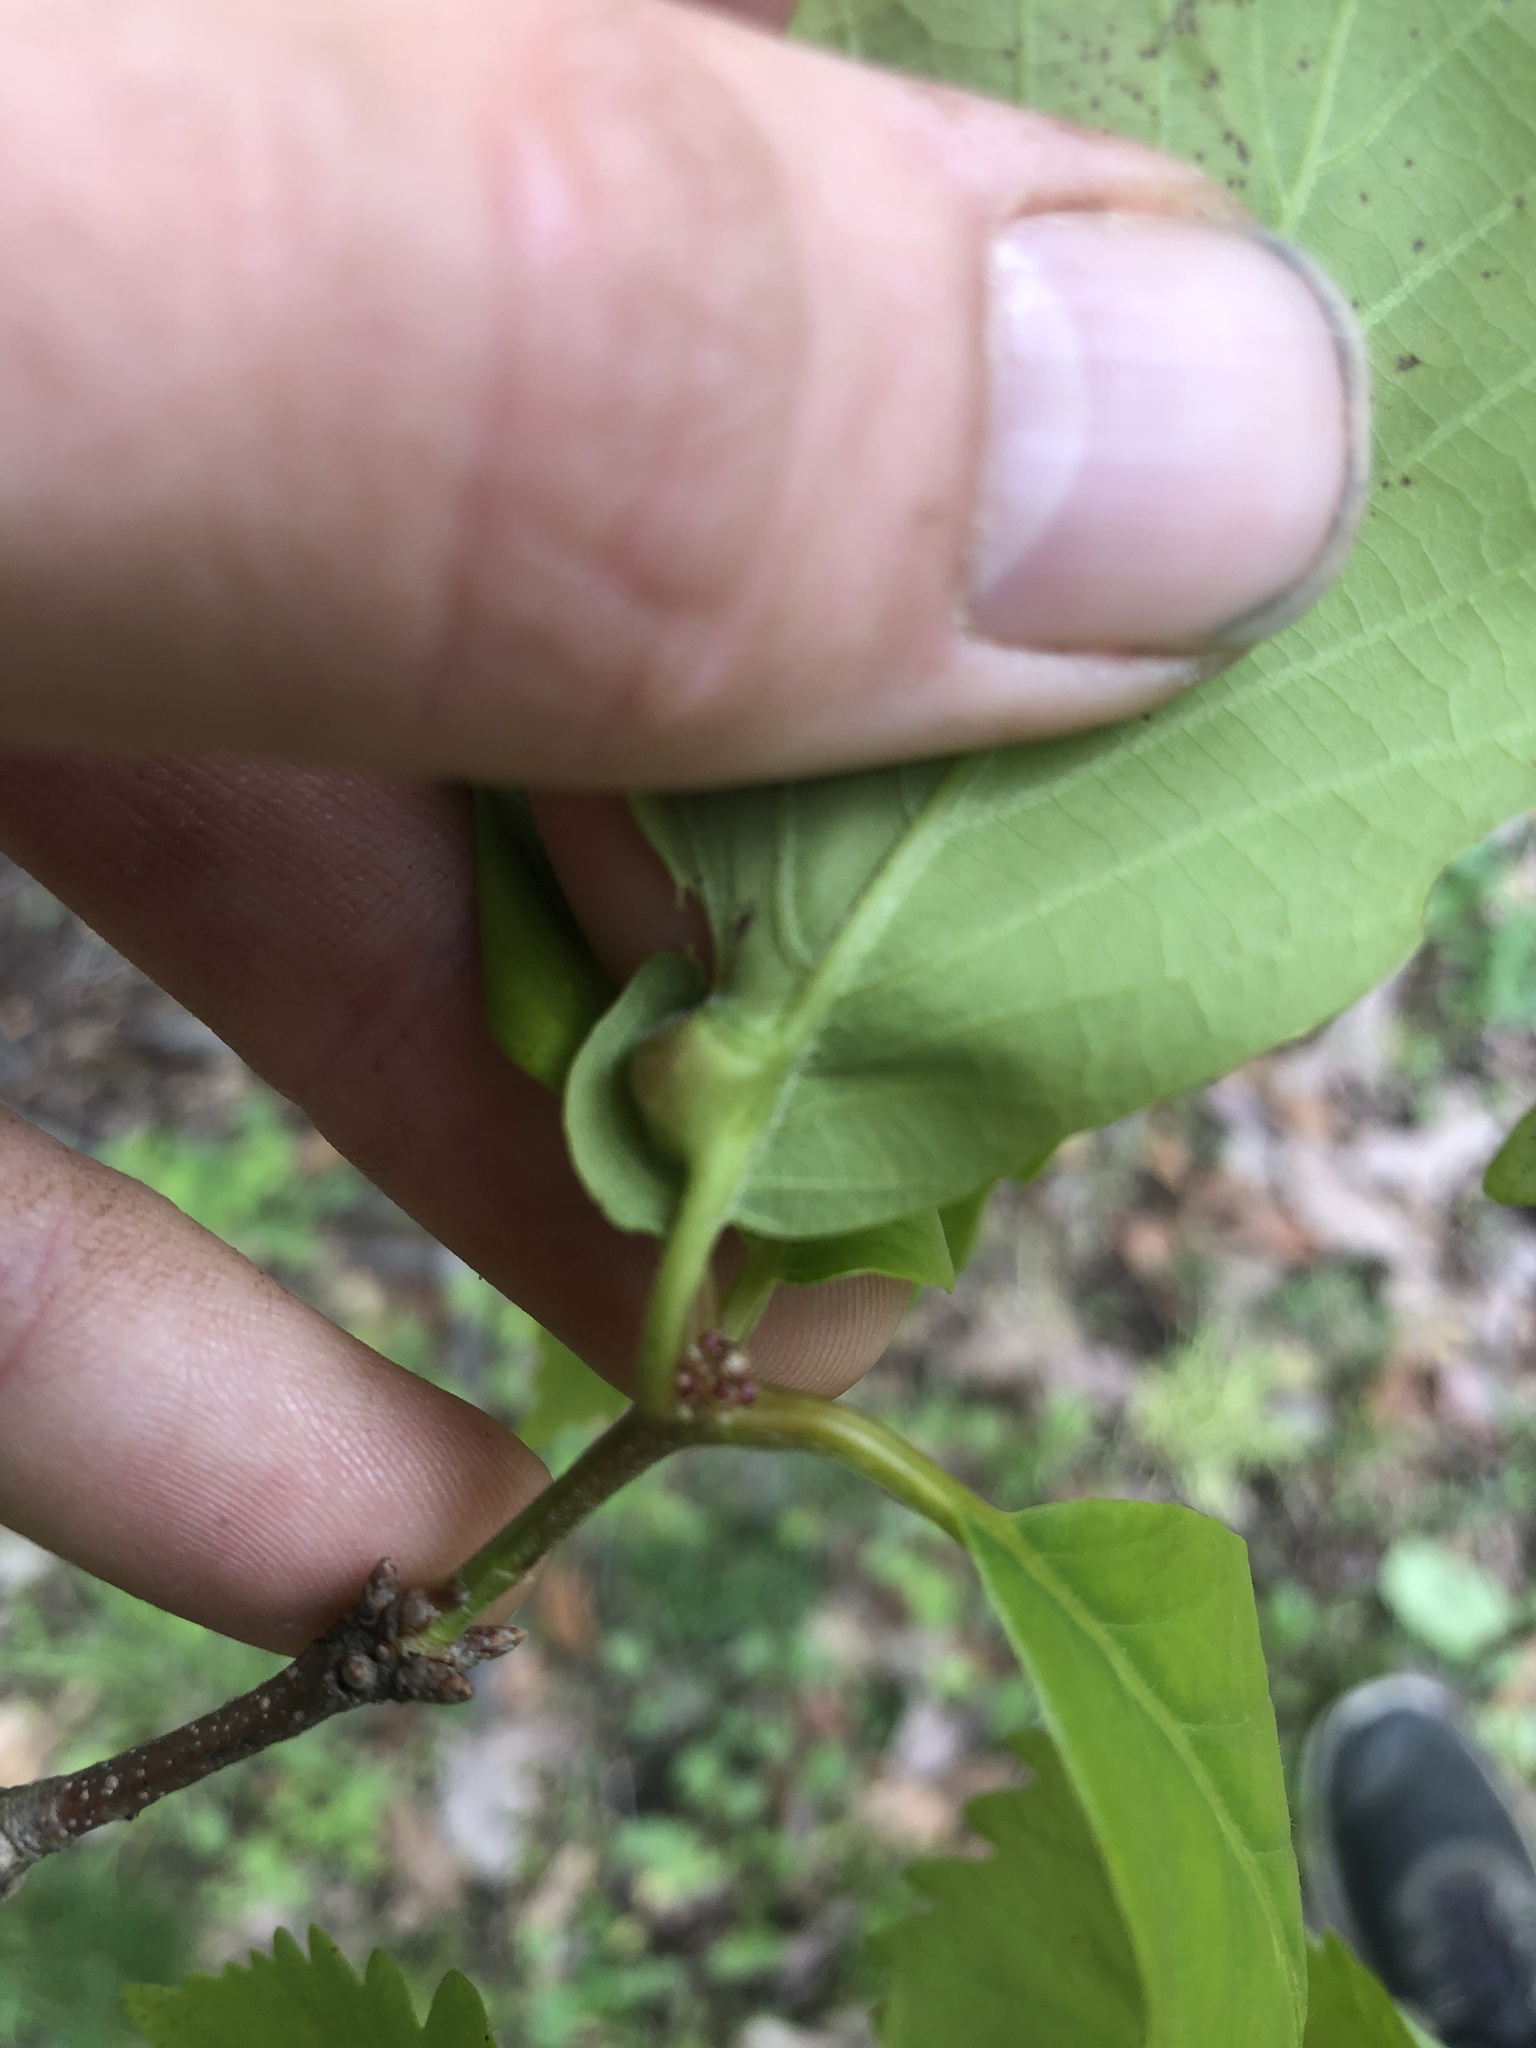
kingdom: Animalia
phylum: Arthropoda
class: Insecta
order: Hymenoptera
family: Cynipidae
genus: Andricus
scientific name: Andricus
